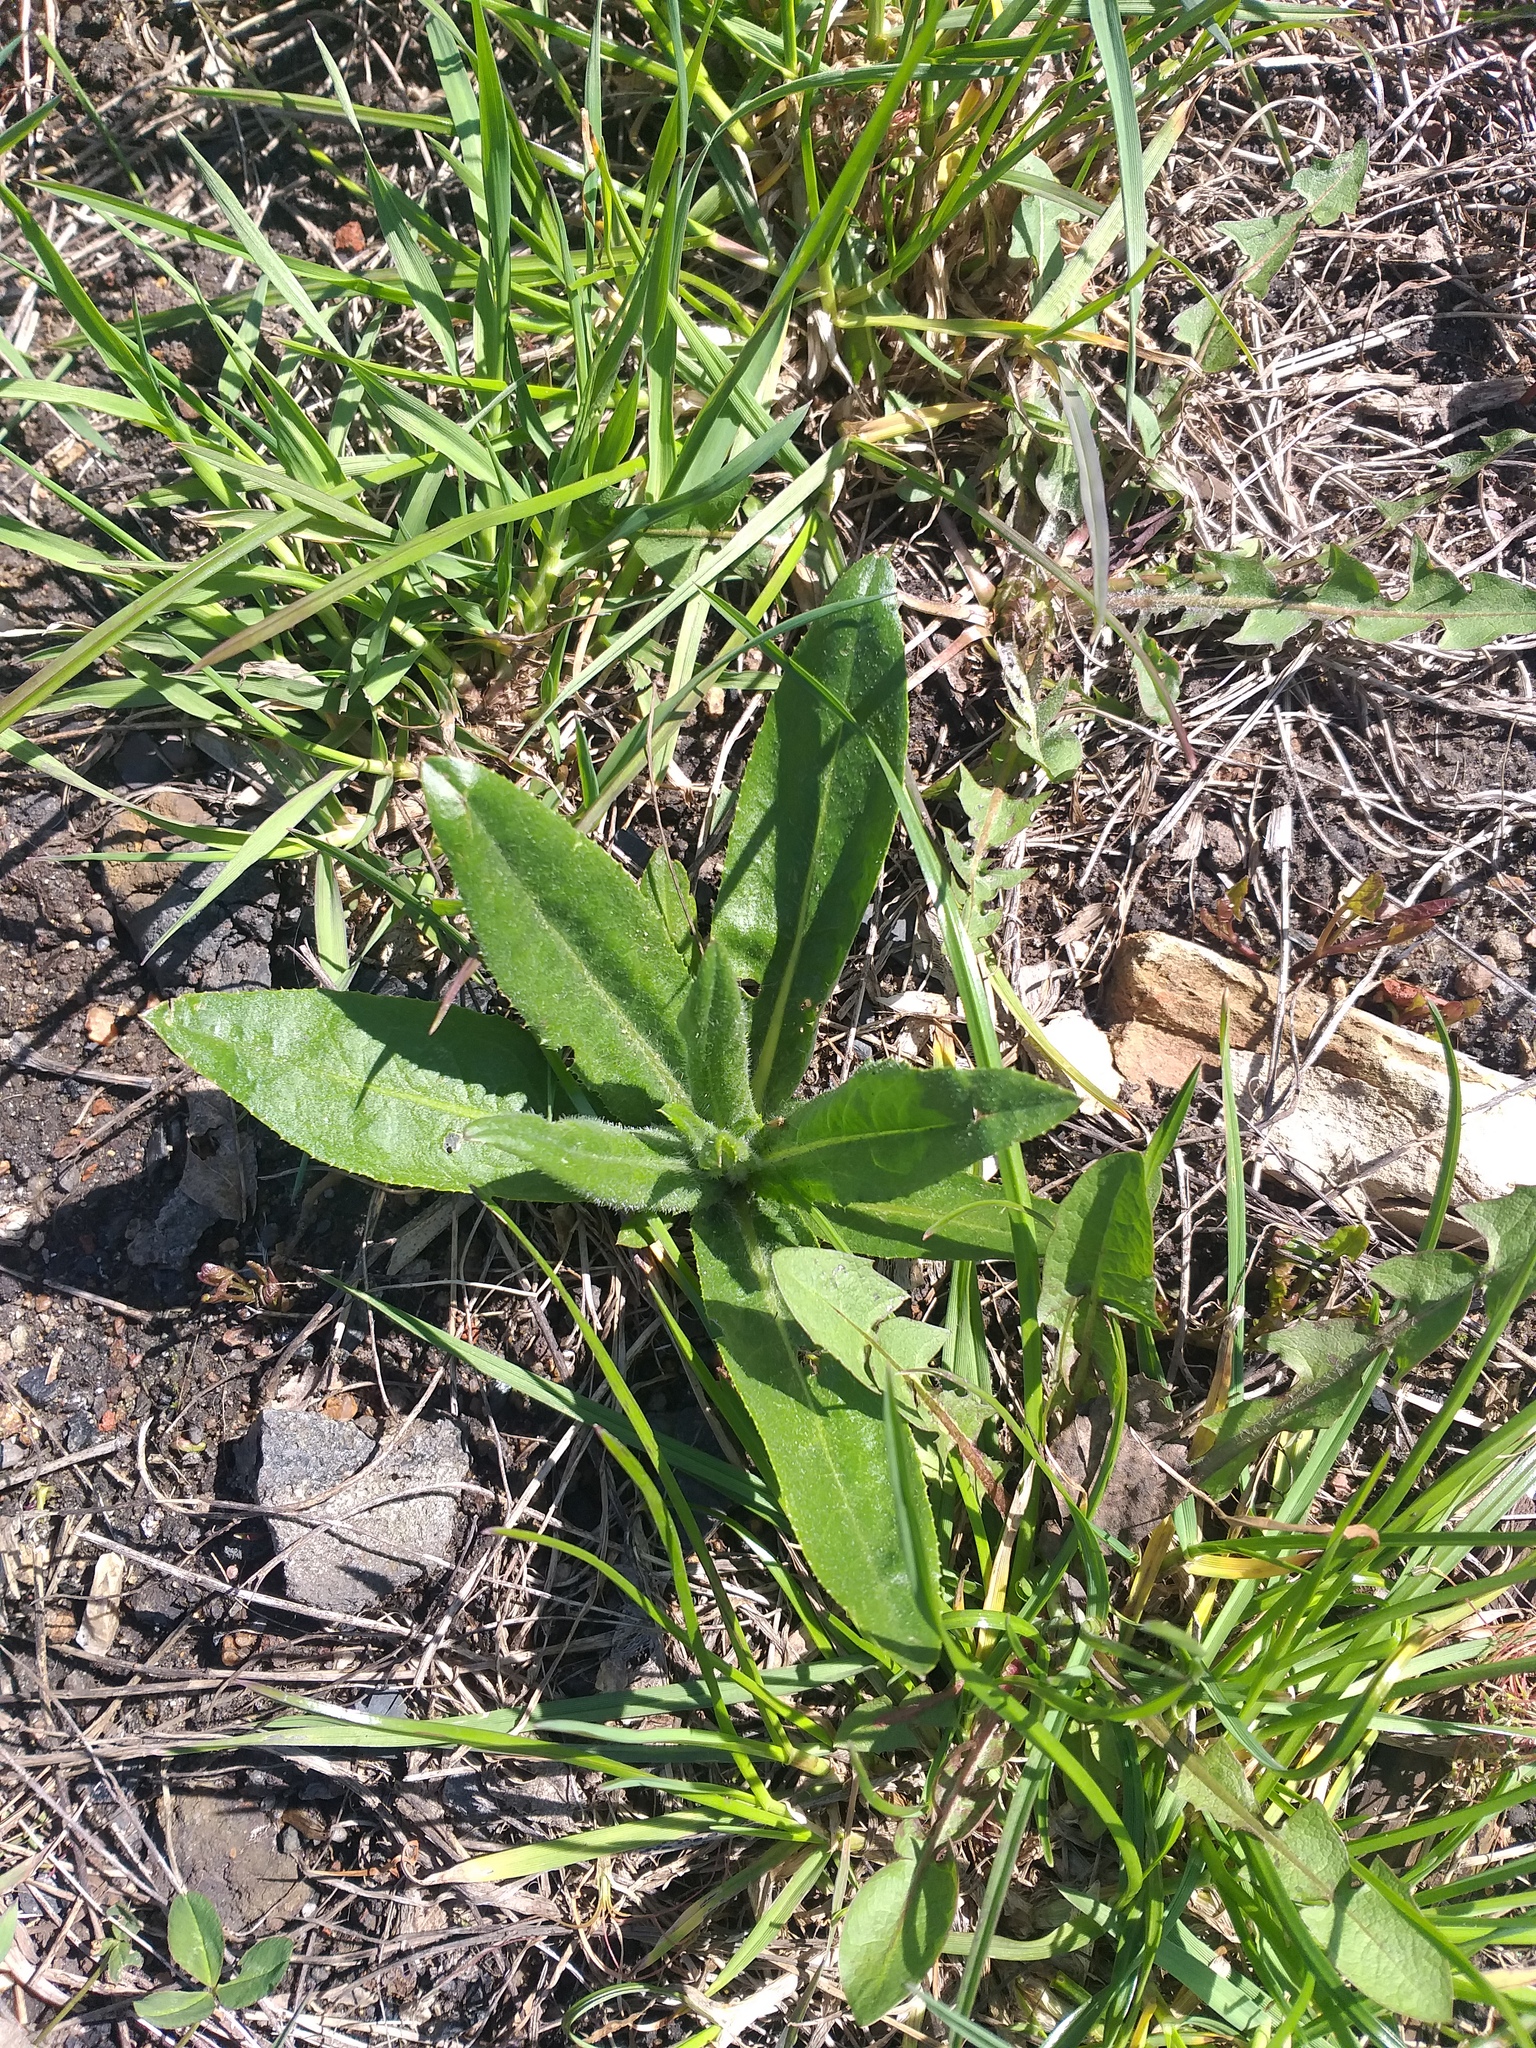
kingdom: Plantae
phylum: Tracheophyta
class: Magnoliopsida
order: Asterales
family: Asteraceae
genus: Cirsium
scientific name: Cirsium arvense
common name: Creeping thistle
